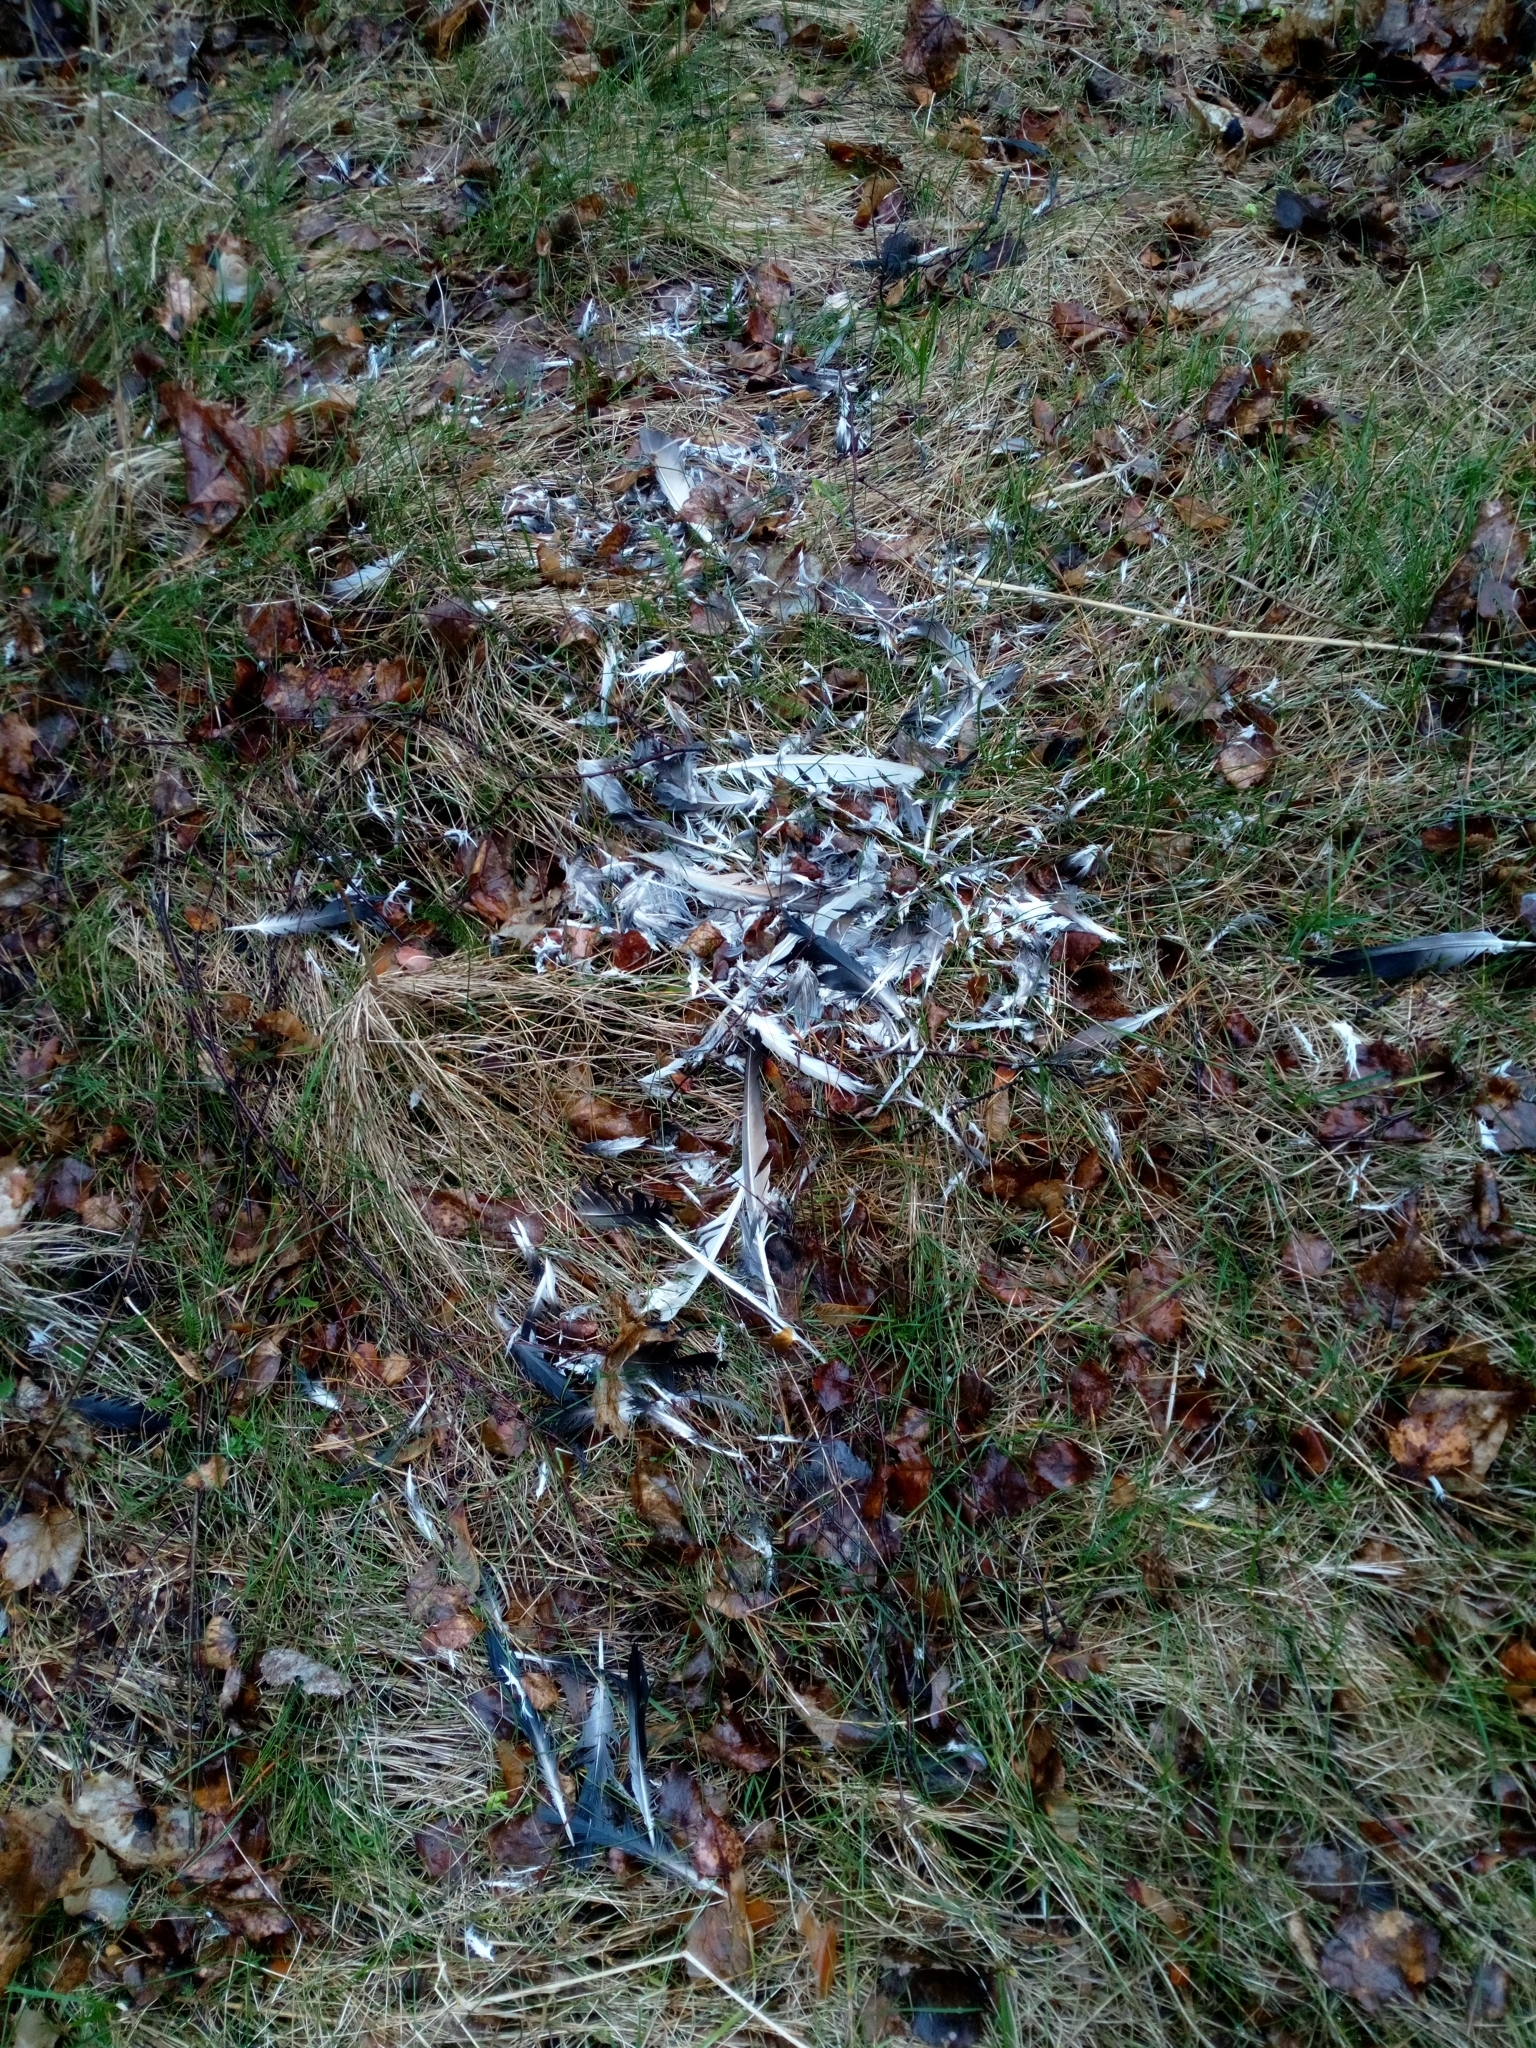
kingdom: Animalia
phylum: Chordata
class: Aves
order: Columbiformes
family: Columbidae
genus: Columba
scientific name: Columba livia
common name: Rock pigeon
